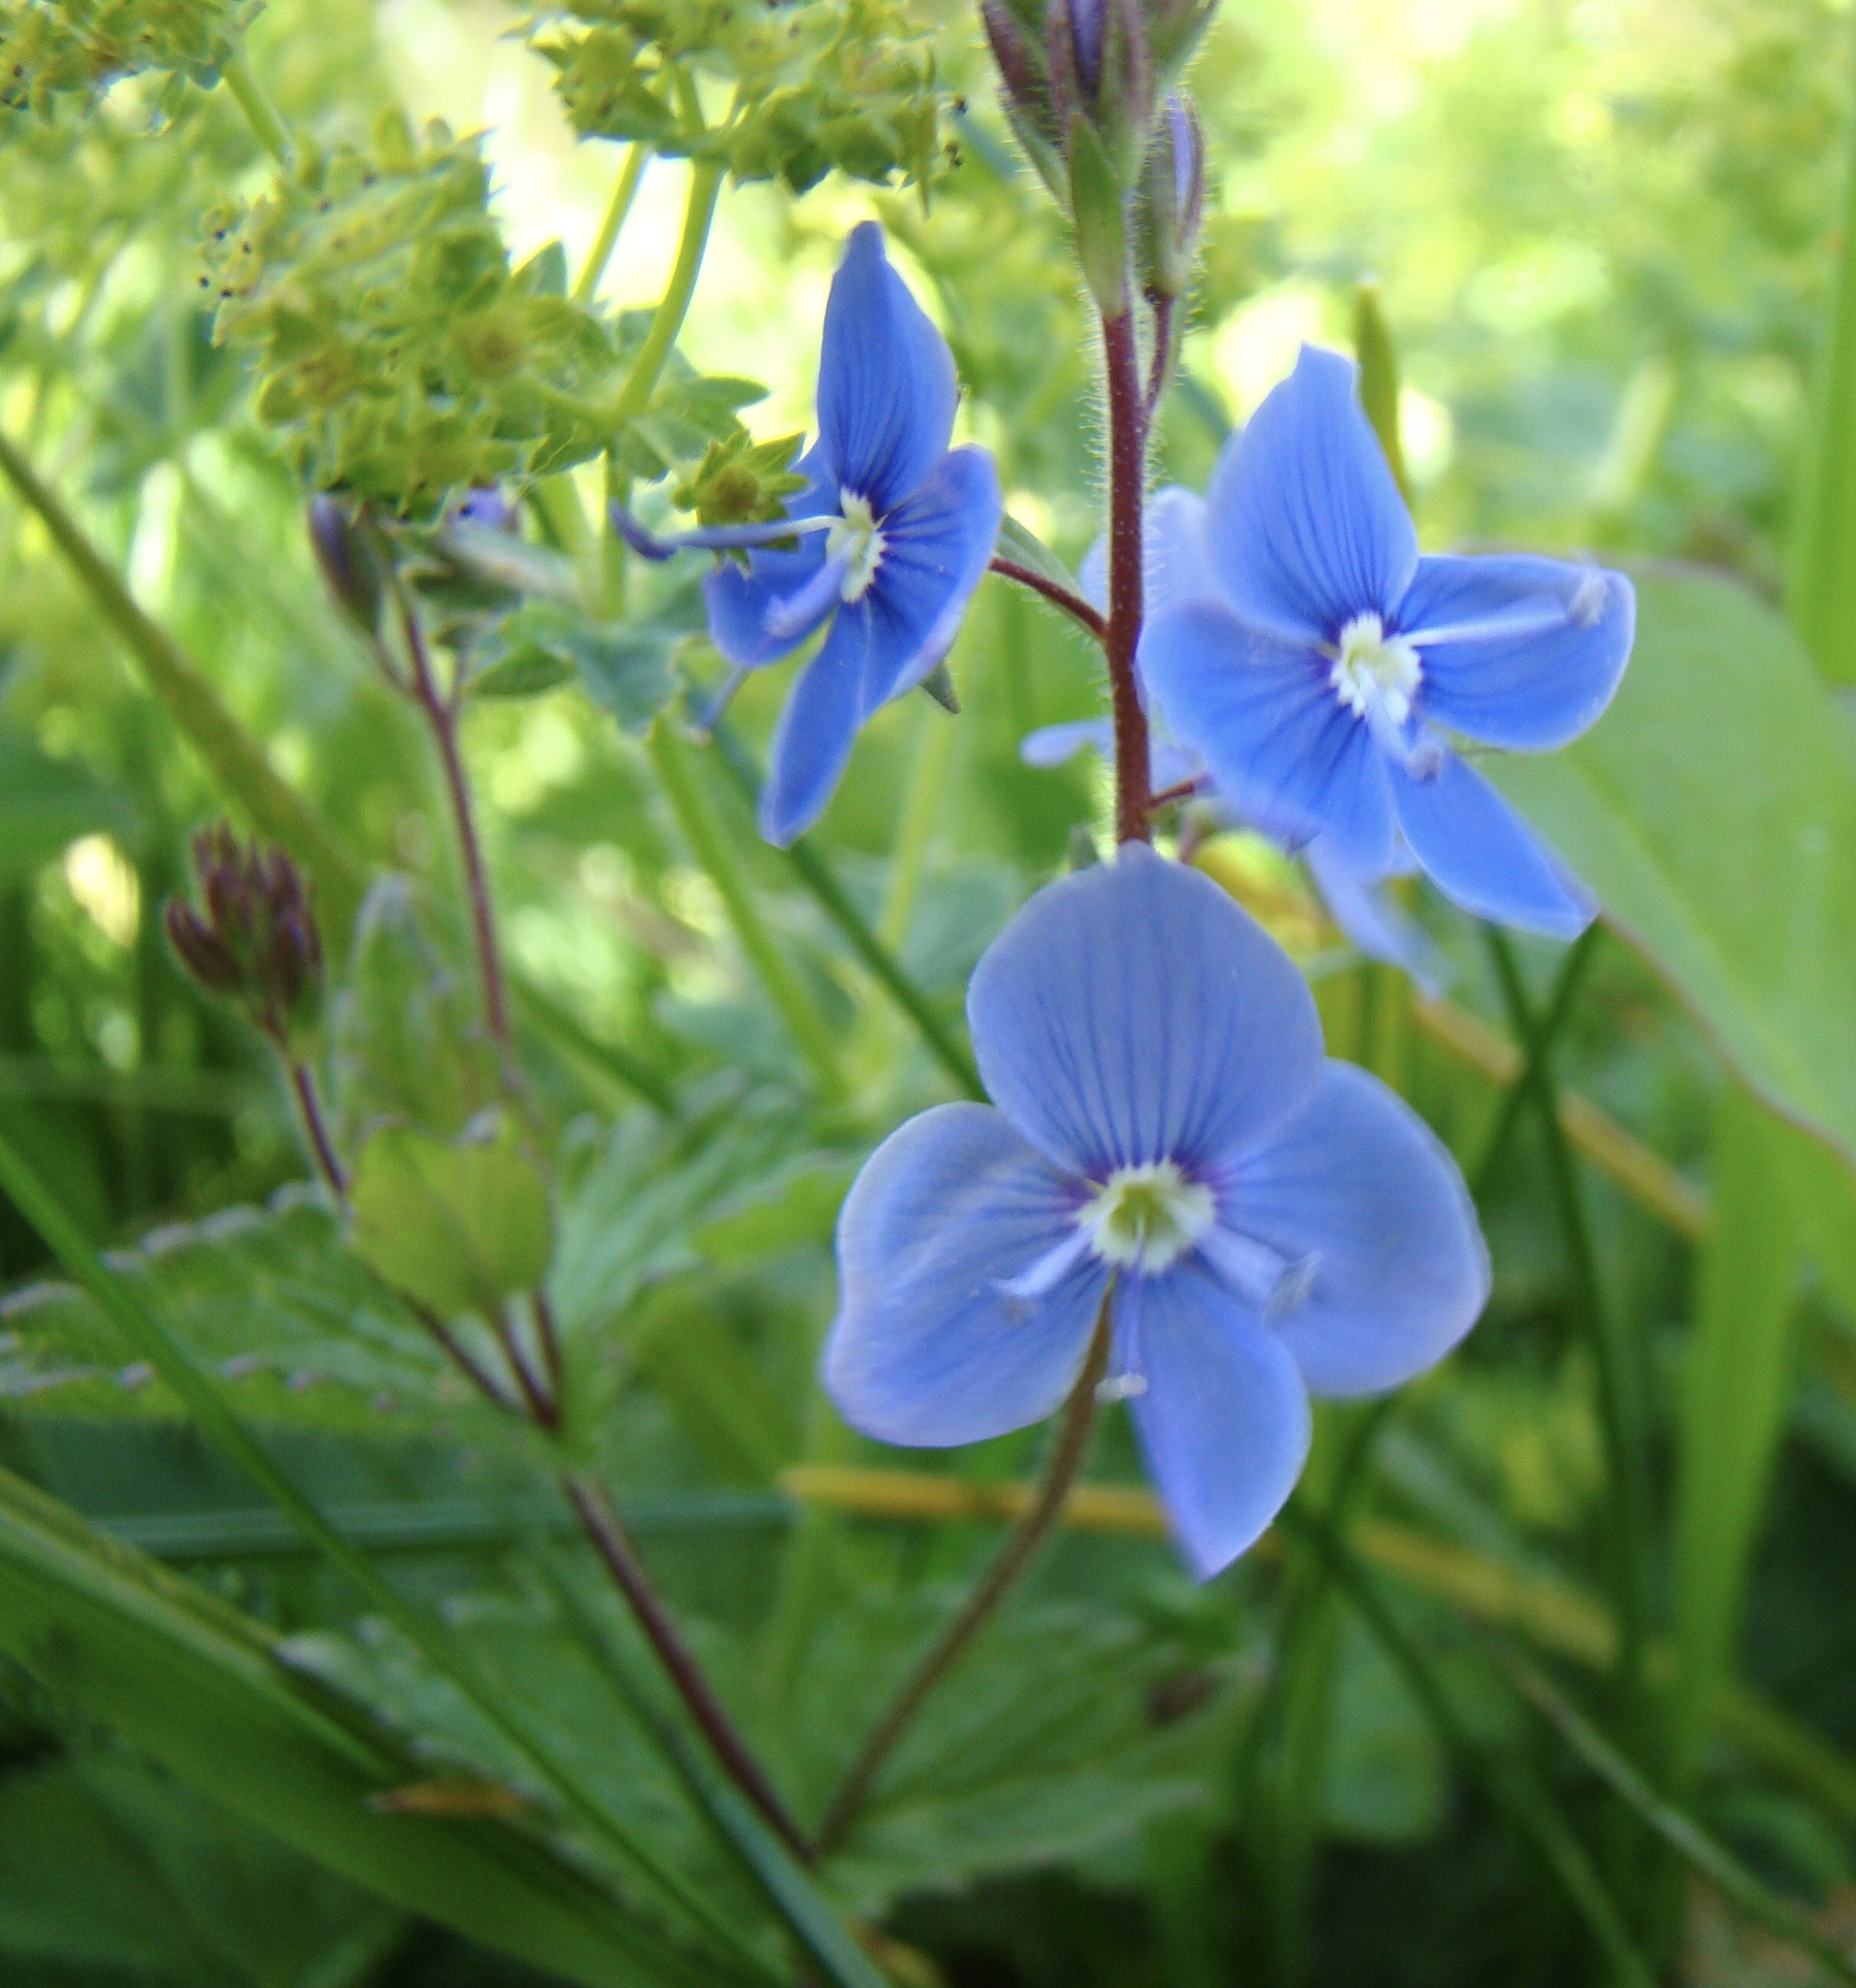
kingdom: Plantae
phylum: Tracheophyta
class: Magnoliopsida
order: Lamiales
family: Plantaginaceae
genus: Veronica
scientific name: Veronica chamaedrys
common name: Germander speedwell
